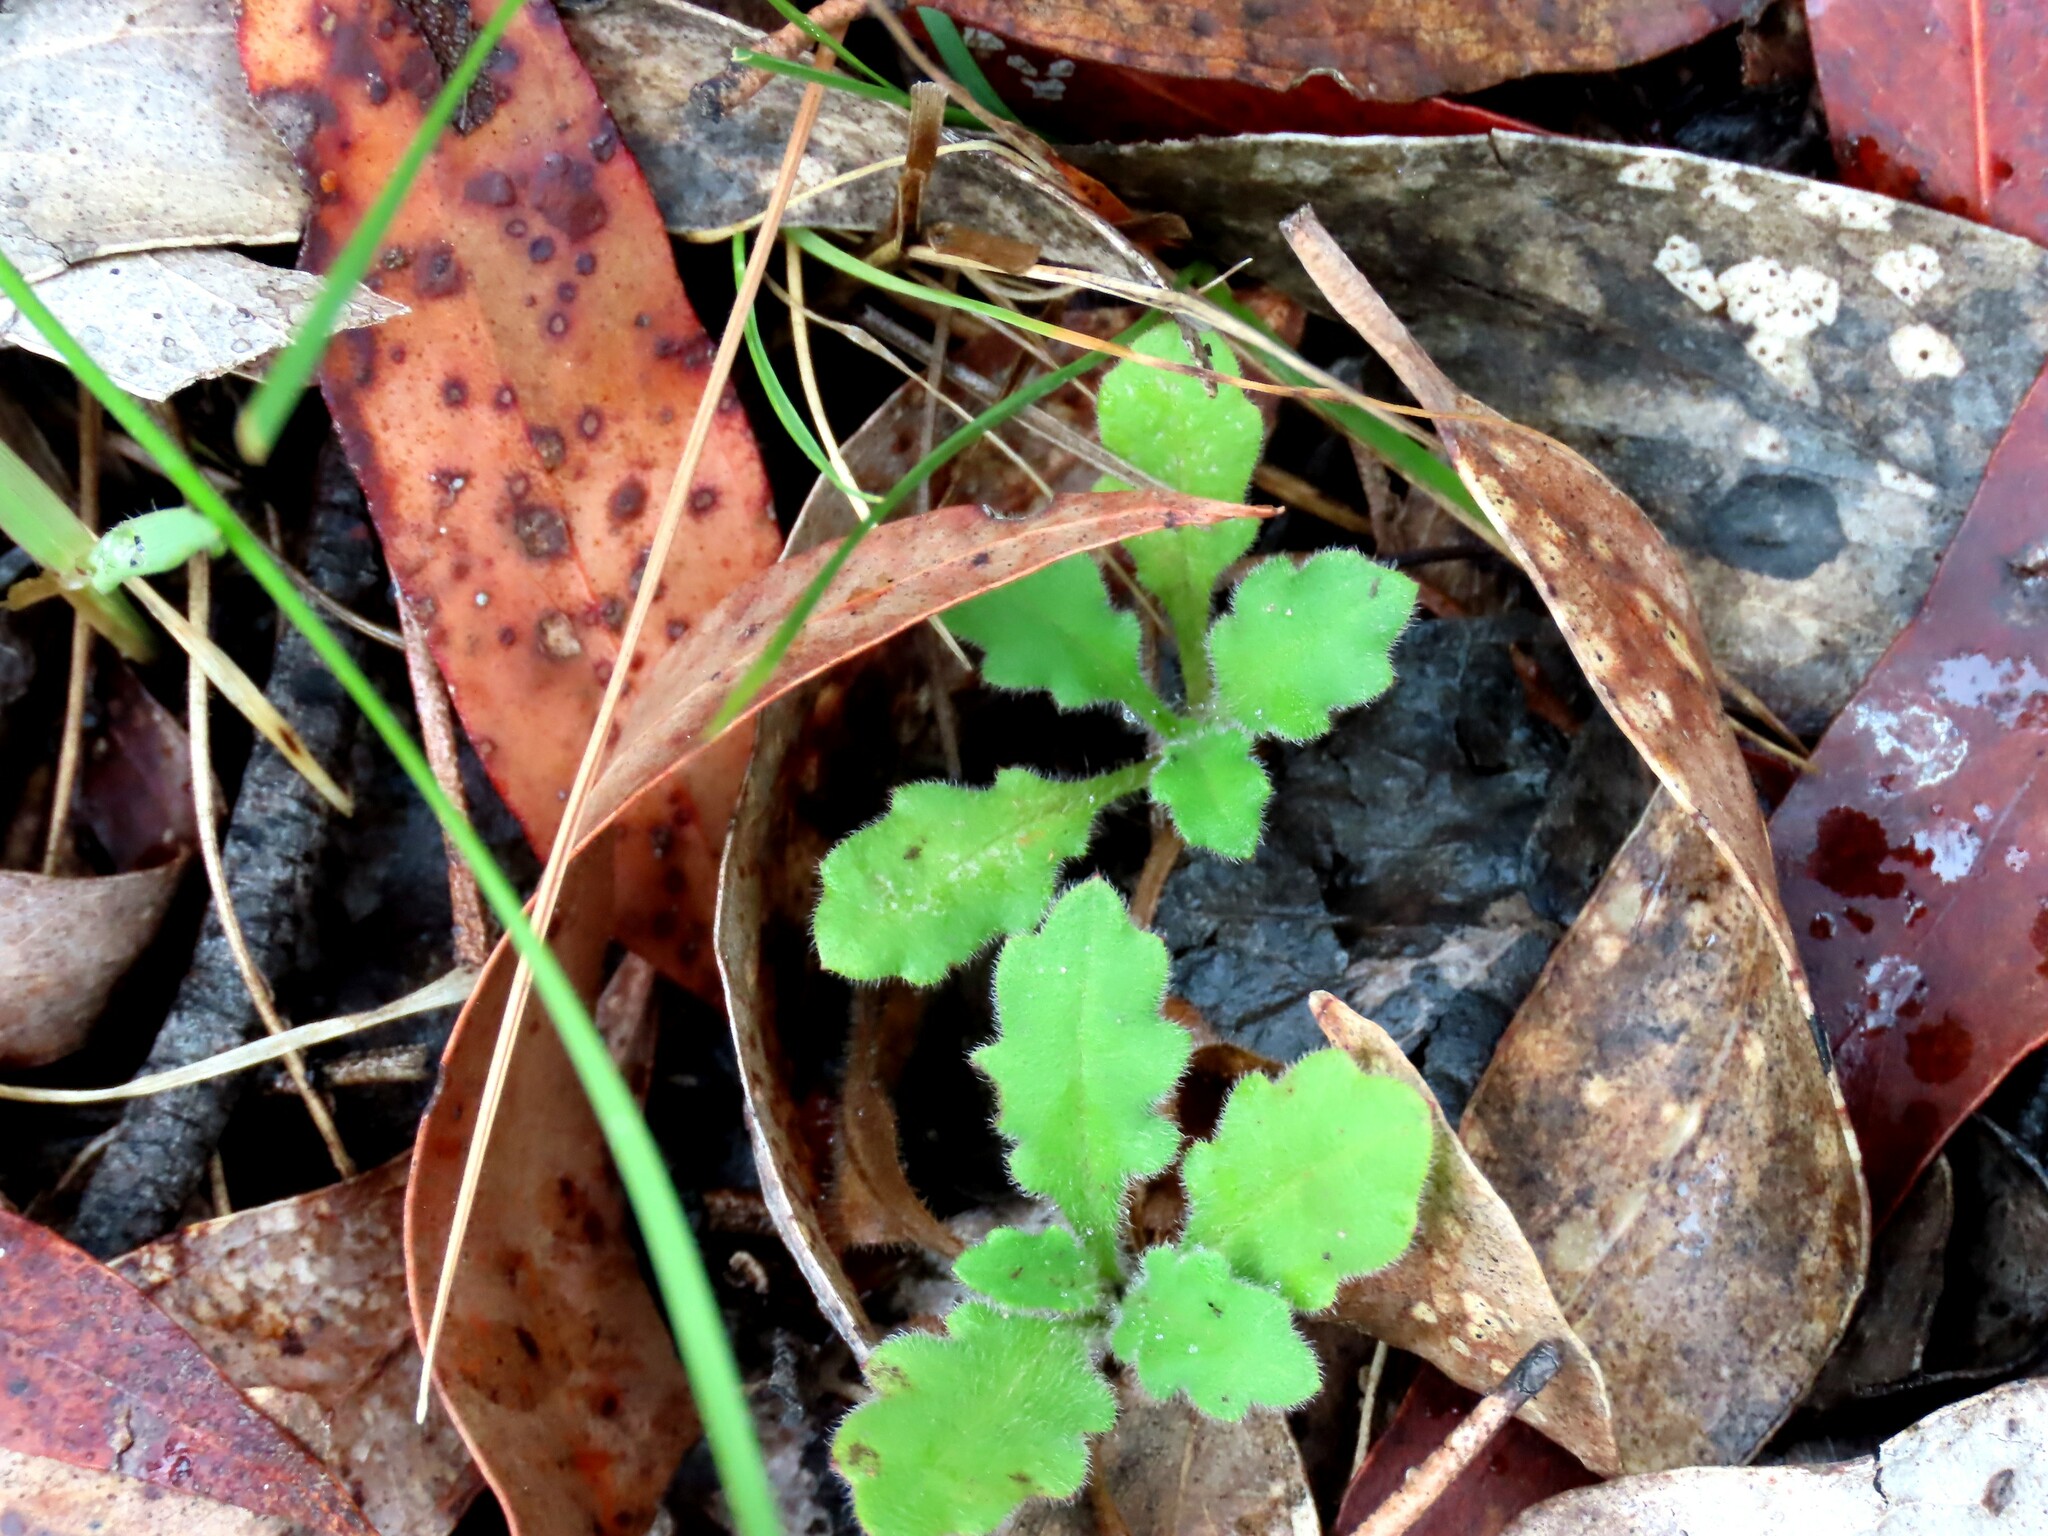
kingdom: Plantae
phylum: Tracheophyta
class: Magnoliopsida
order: Asterales
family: Asteraceae
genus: Lagenophora
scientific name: Lagenophora stipitata
